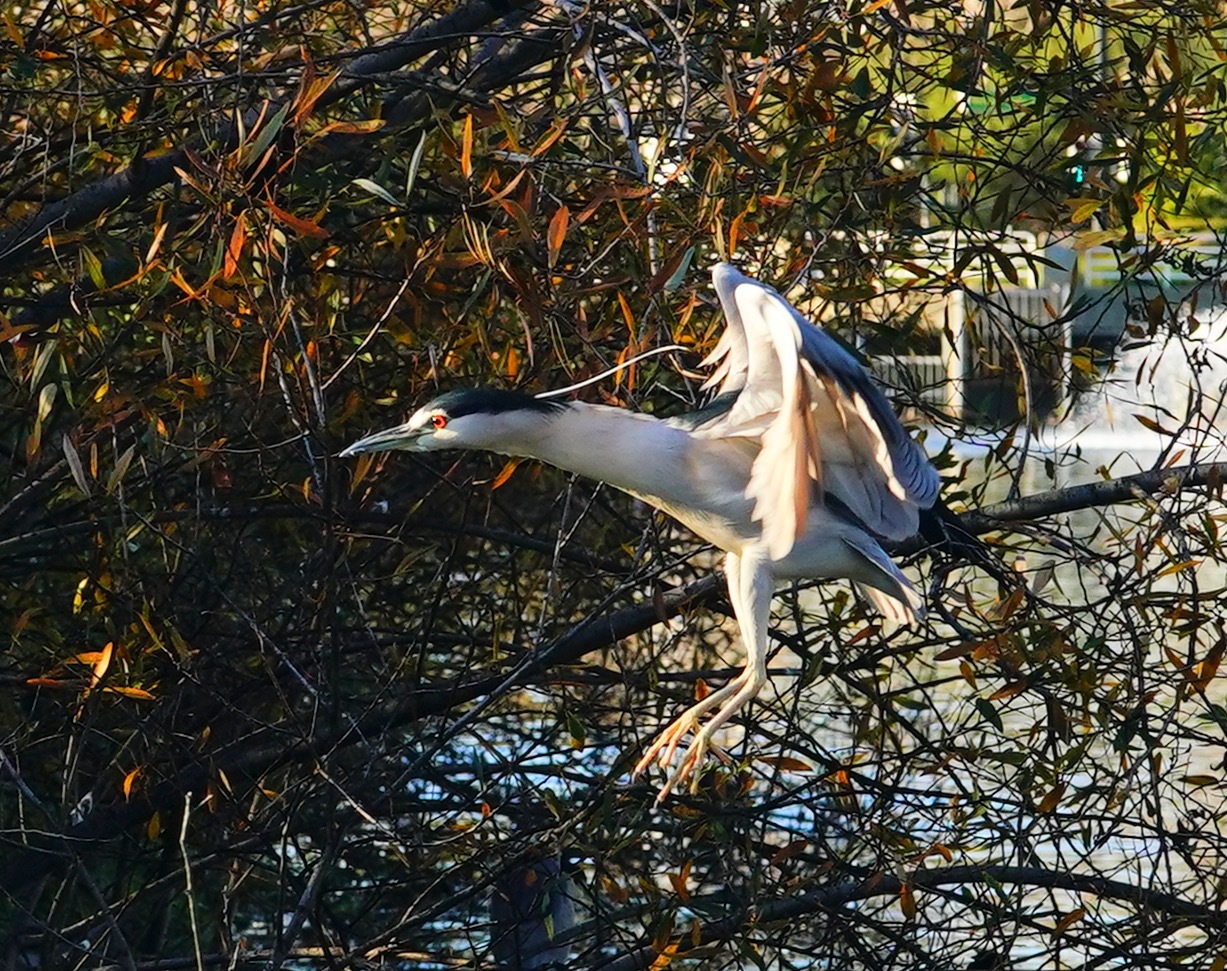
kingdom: Animalia
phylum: Chordata
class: Aves
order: Pelecaniformes
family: Ardeidae
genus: Nycticorax
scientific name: Nycticorax nycticorax
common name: Black-crowned night heron
